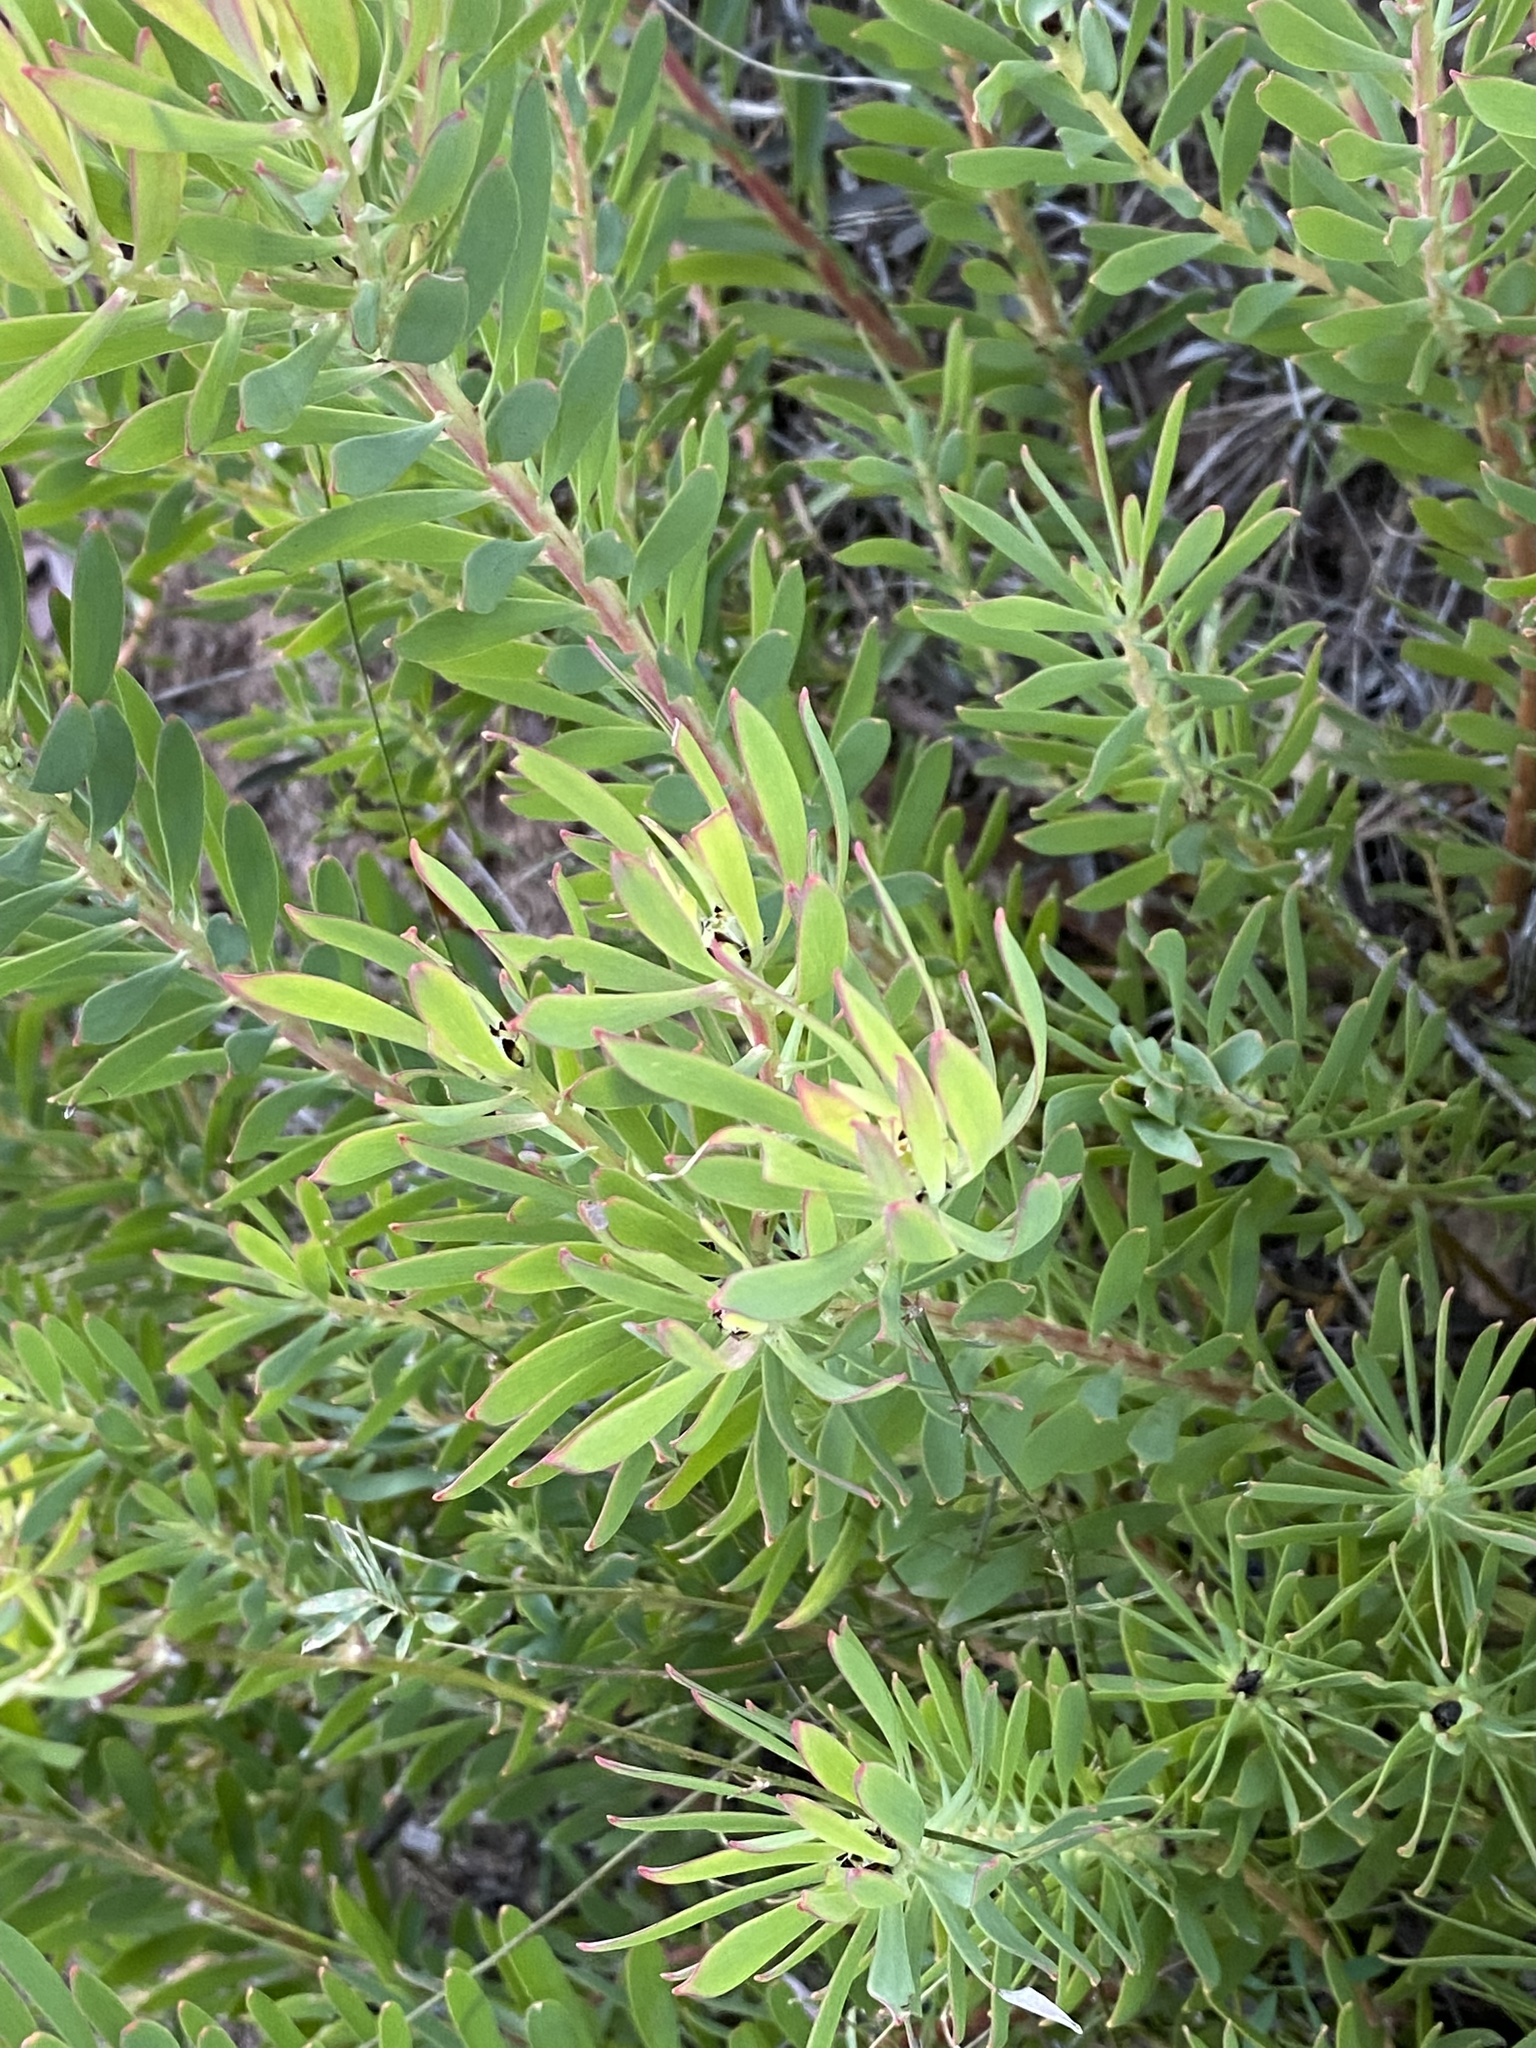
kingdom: Plantae
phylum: Tracheophyta
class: Magnoliopsida
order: Proteales
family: Proteaceae
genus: Leucadendron
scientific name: Leucadendron salignum
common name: Common sunshine conebush
